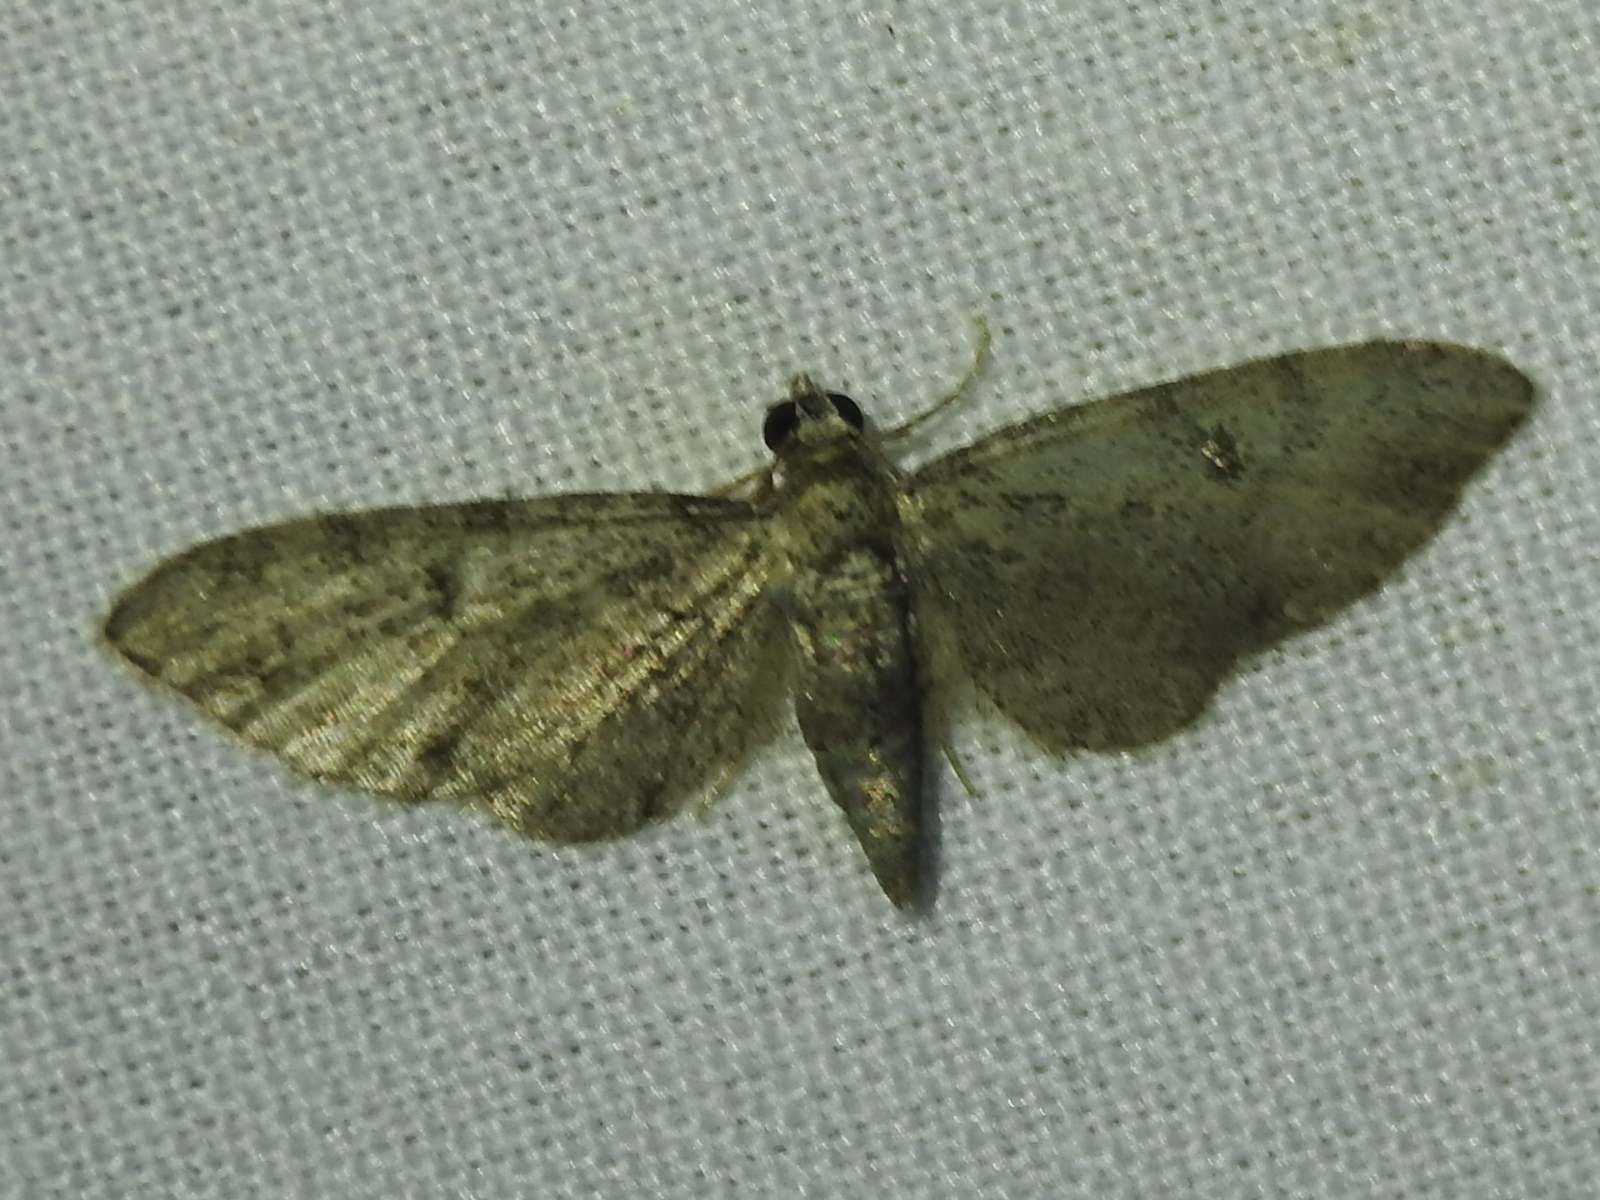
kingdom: Animalia
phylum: Arthropoda
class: Insecta
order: Lepidoptera
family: Geometridae
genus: Eupithecia
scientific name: Eupithecia jejunata
